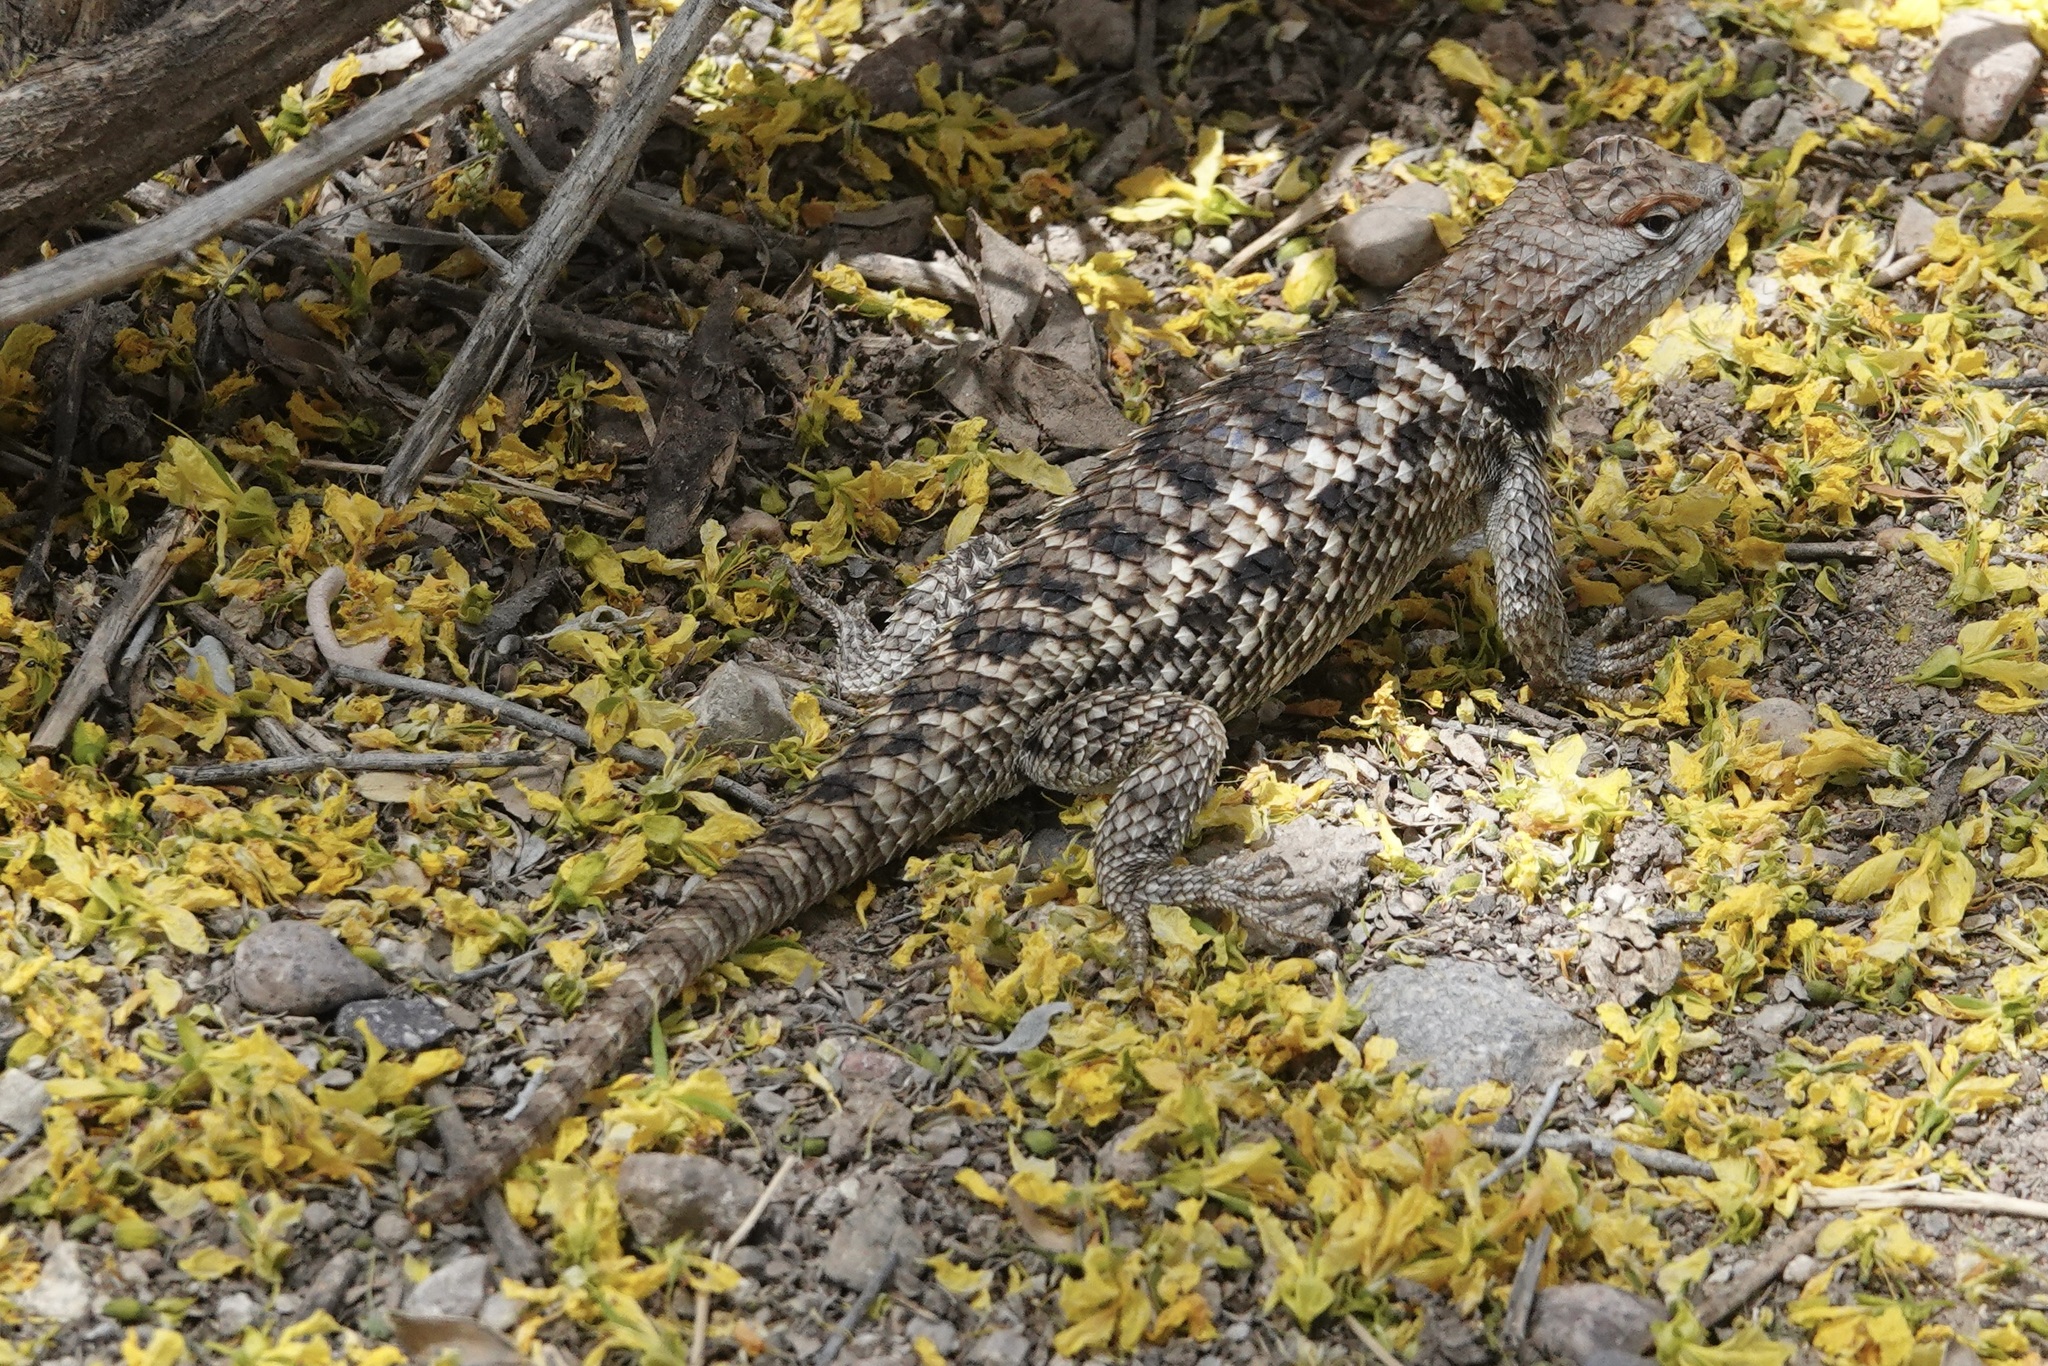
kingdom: Animalia
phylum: Chordata
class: Squamata
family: Phrynosomatidae
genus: Sceloporus
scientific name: Sceloporus magister
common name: Desert spiny lizard
